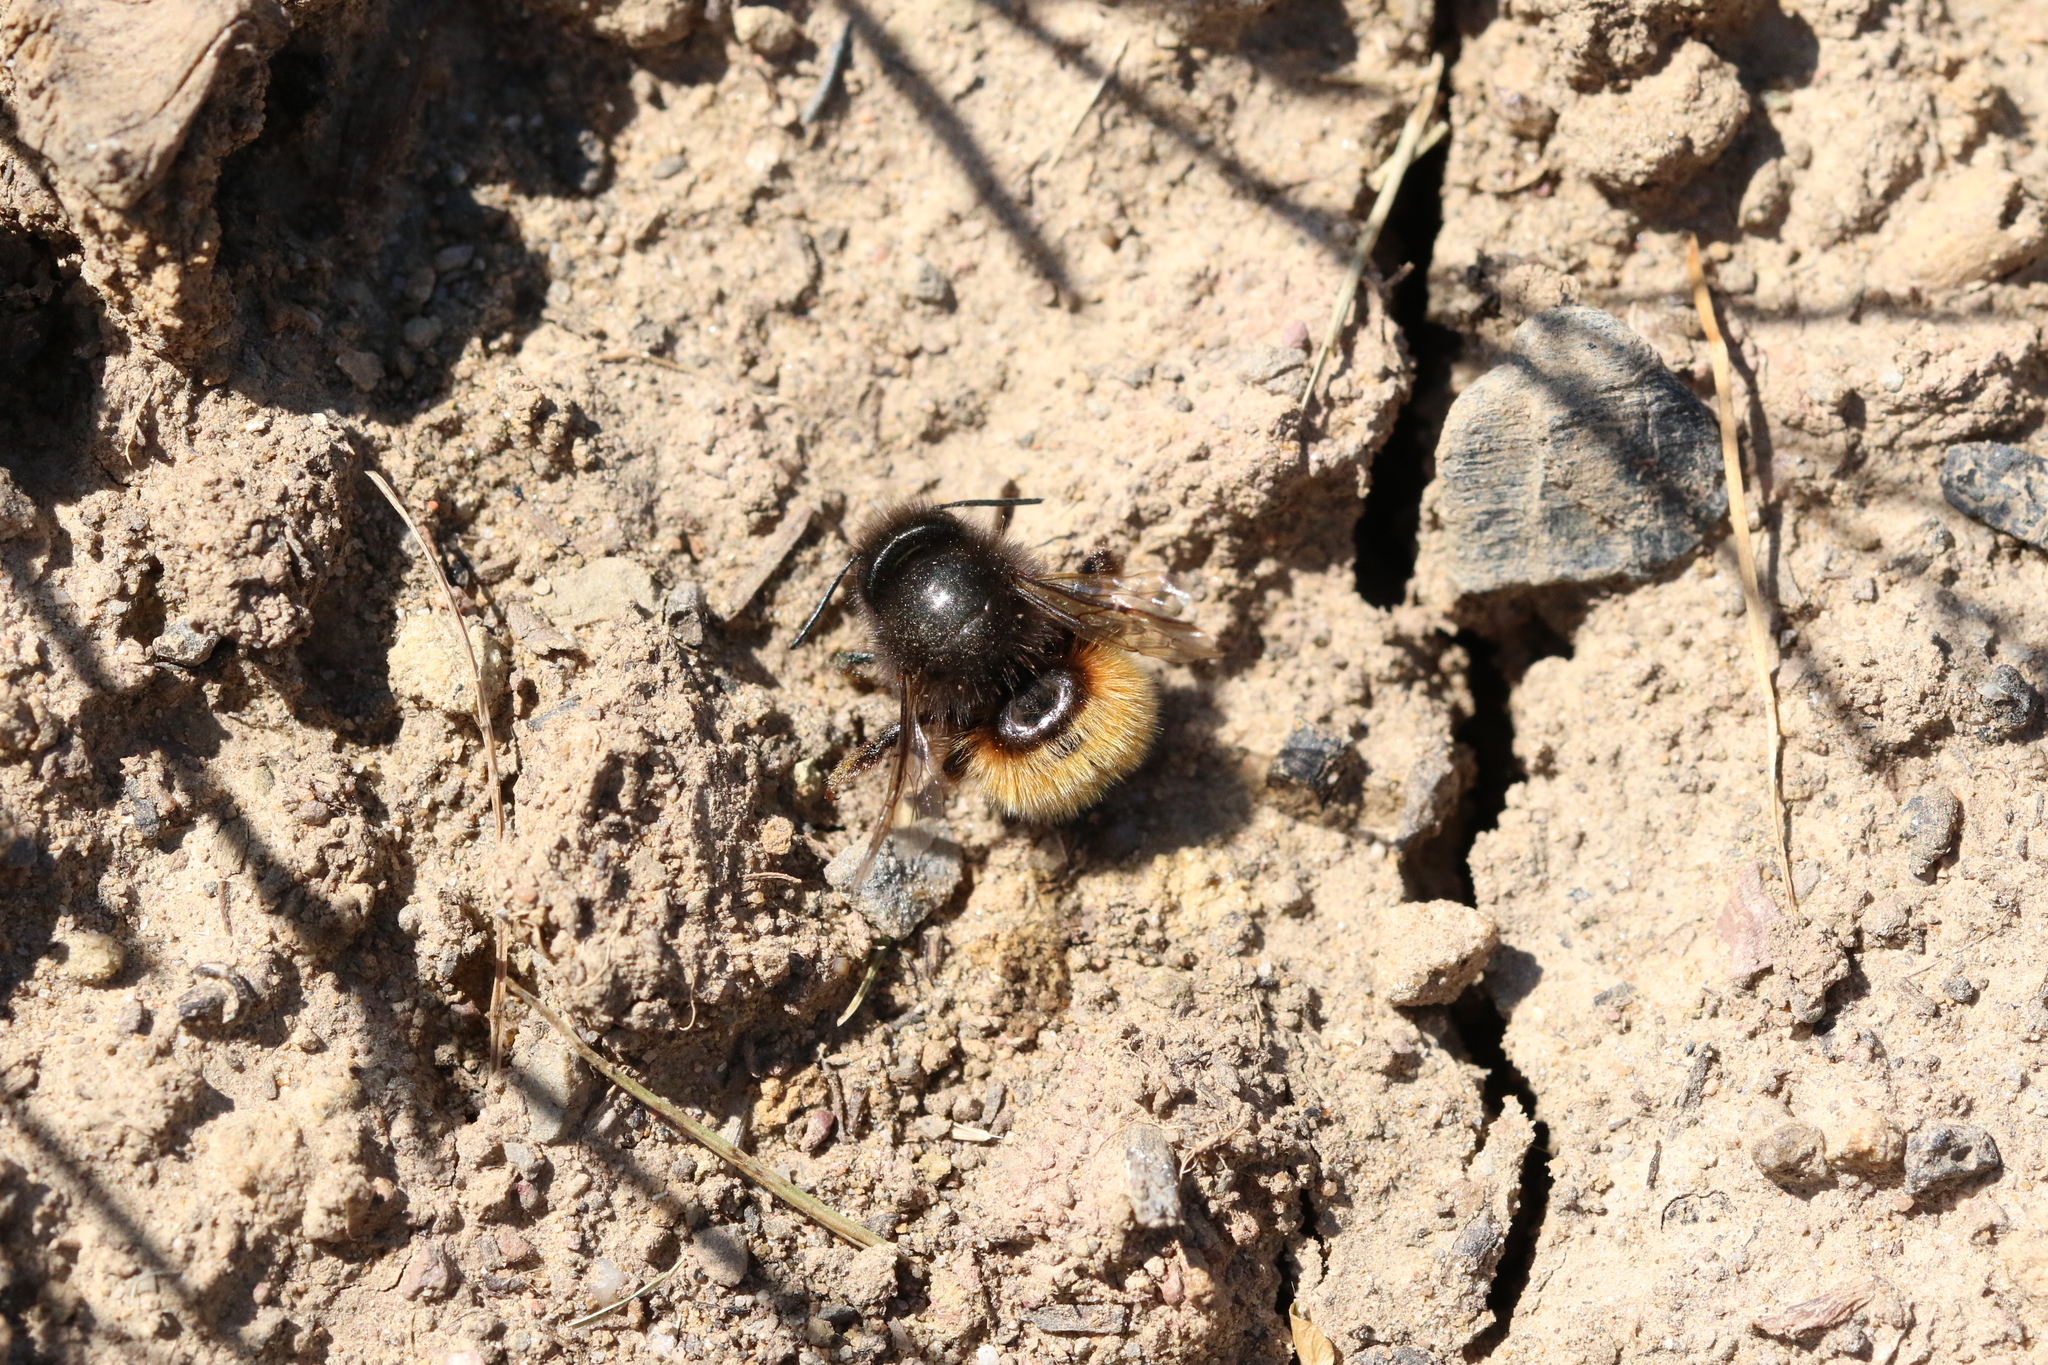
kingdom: Animalia
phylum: Arthropoda
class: Insecta
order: Hymenoptera
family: Megachilidae
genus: Osmia
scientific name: Osmia cornuta
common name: Mason bee
